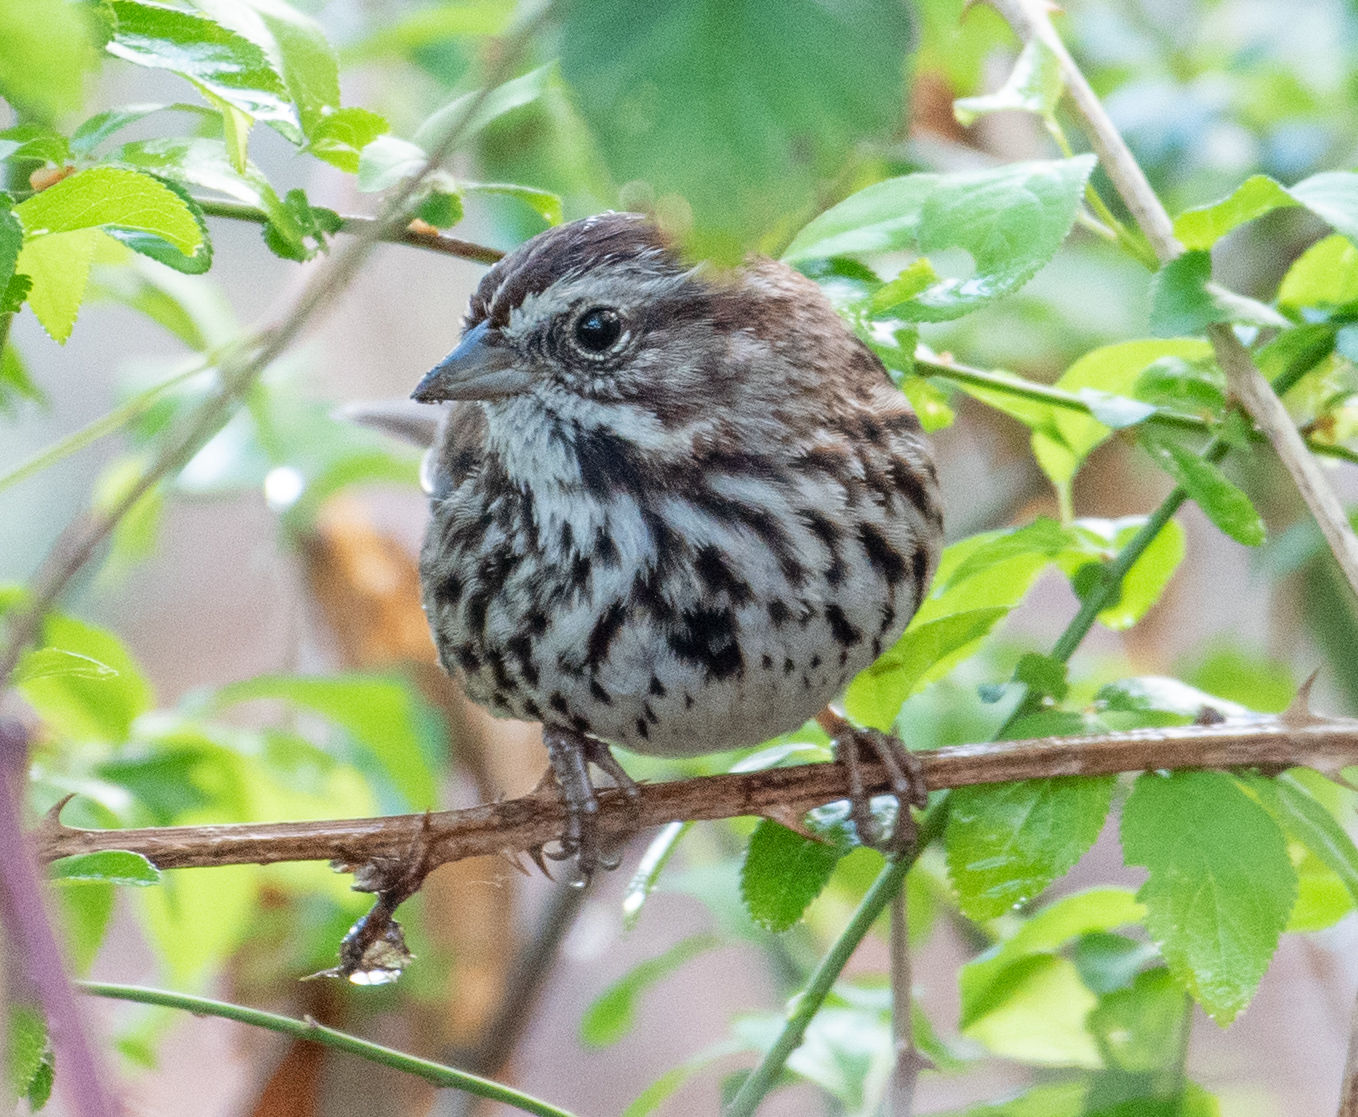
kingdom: Animalia
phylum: Chordata
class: Aves
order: Passeriformes
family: Passerellidae
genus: Melospiza
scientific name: Melospiza melodia
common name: Song sparrow
